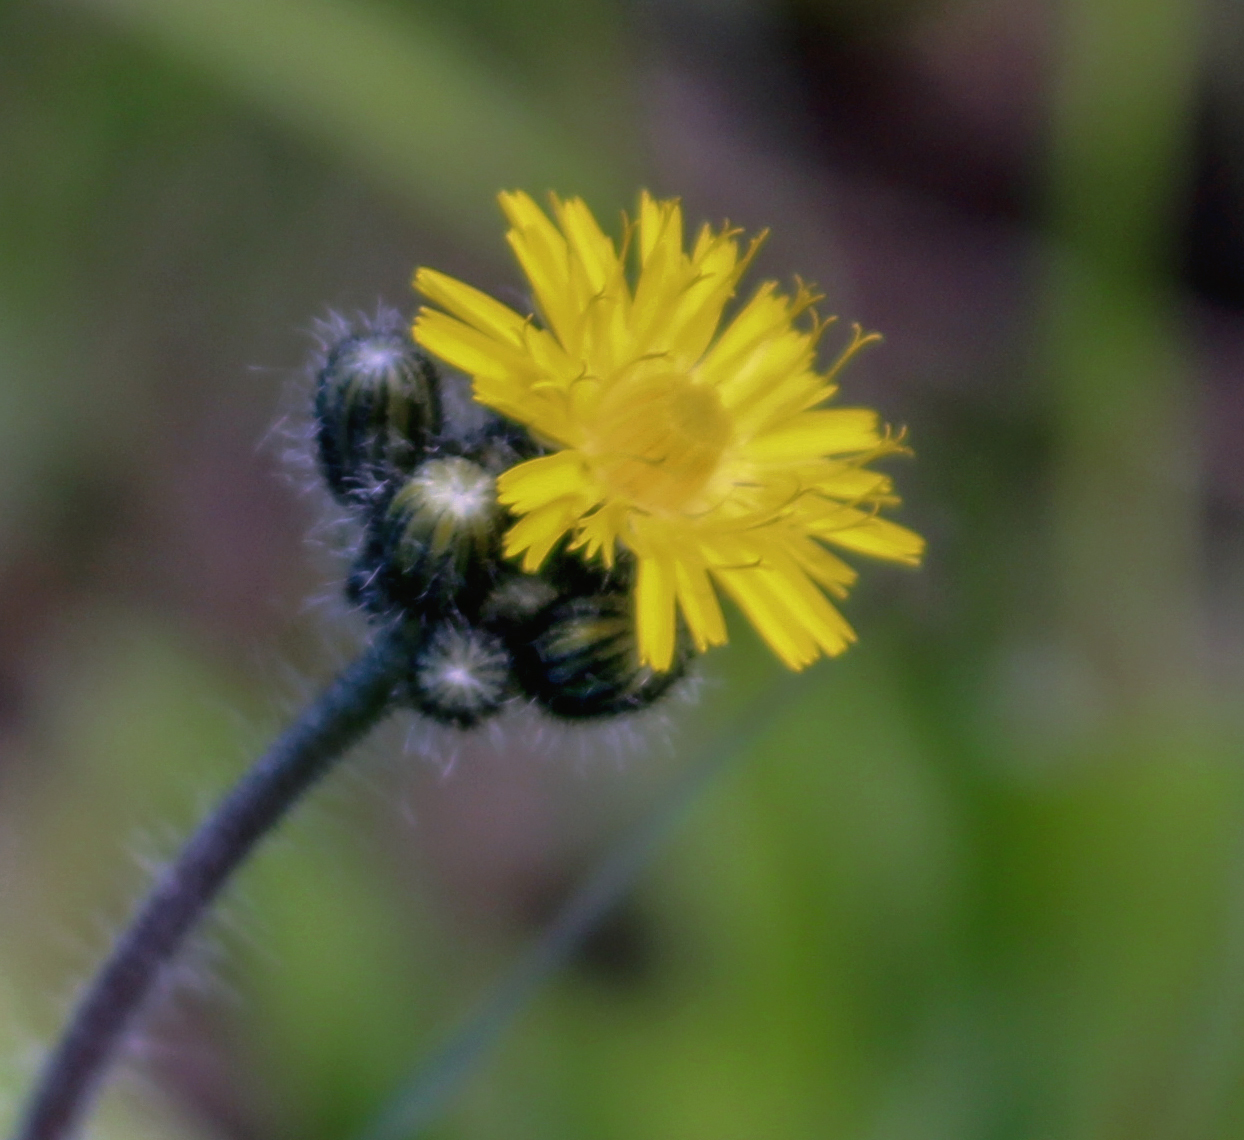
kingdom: Plantae
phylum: Tracheophyta
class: Magnoliopsida
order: Asterales
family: Asteraceae
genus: Pilosella
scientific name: Pilosella caespitosa
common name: Yellow fox-and-cubs
